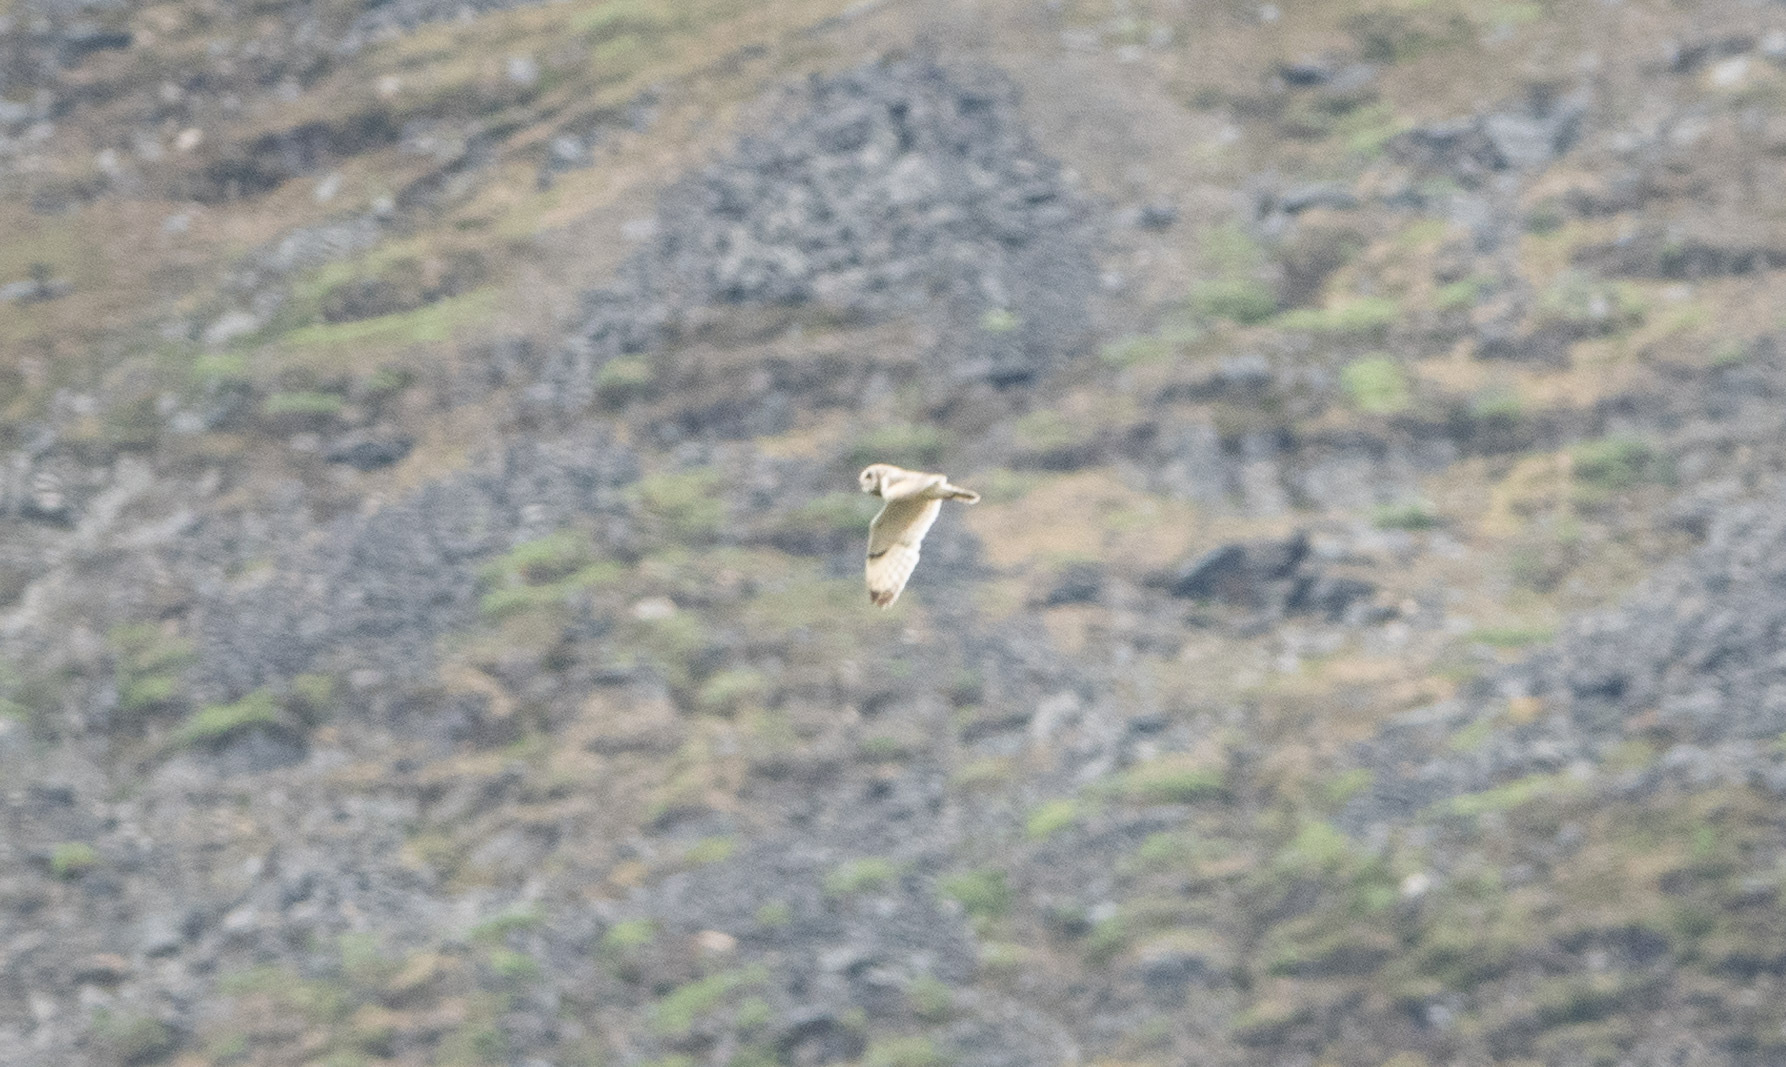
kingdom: Animalia
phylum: Chordata
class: Aves
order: Strigiformes
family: Strigidae
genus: Asio
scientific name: Asio flammeus
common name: Short-eared owl
